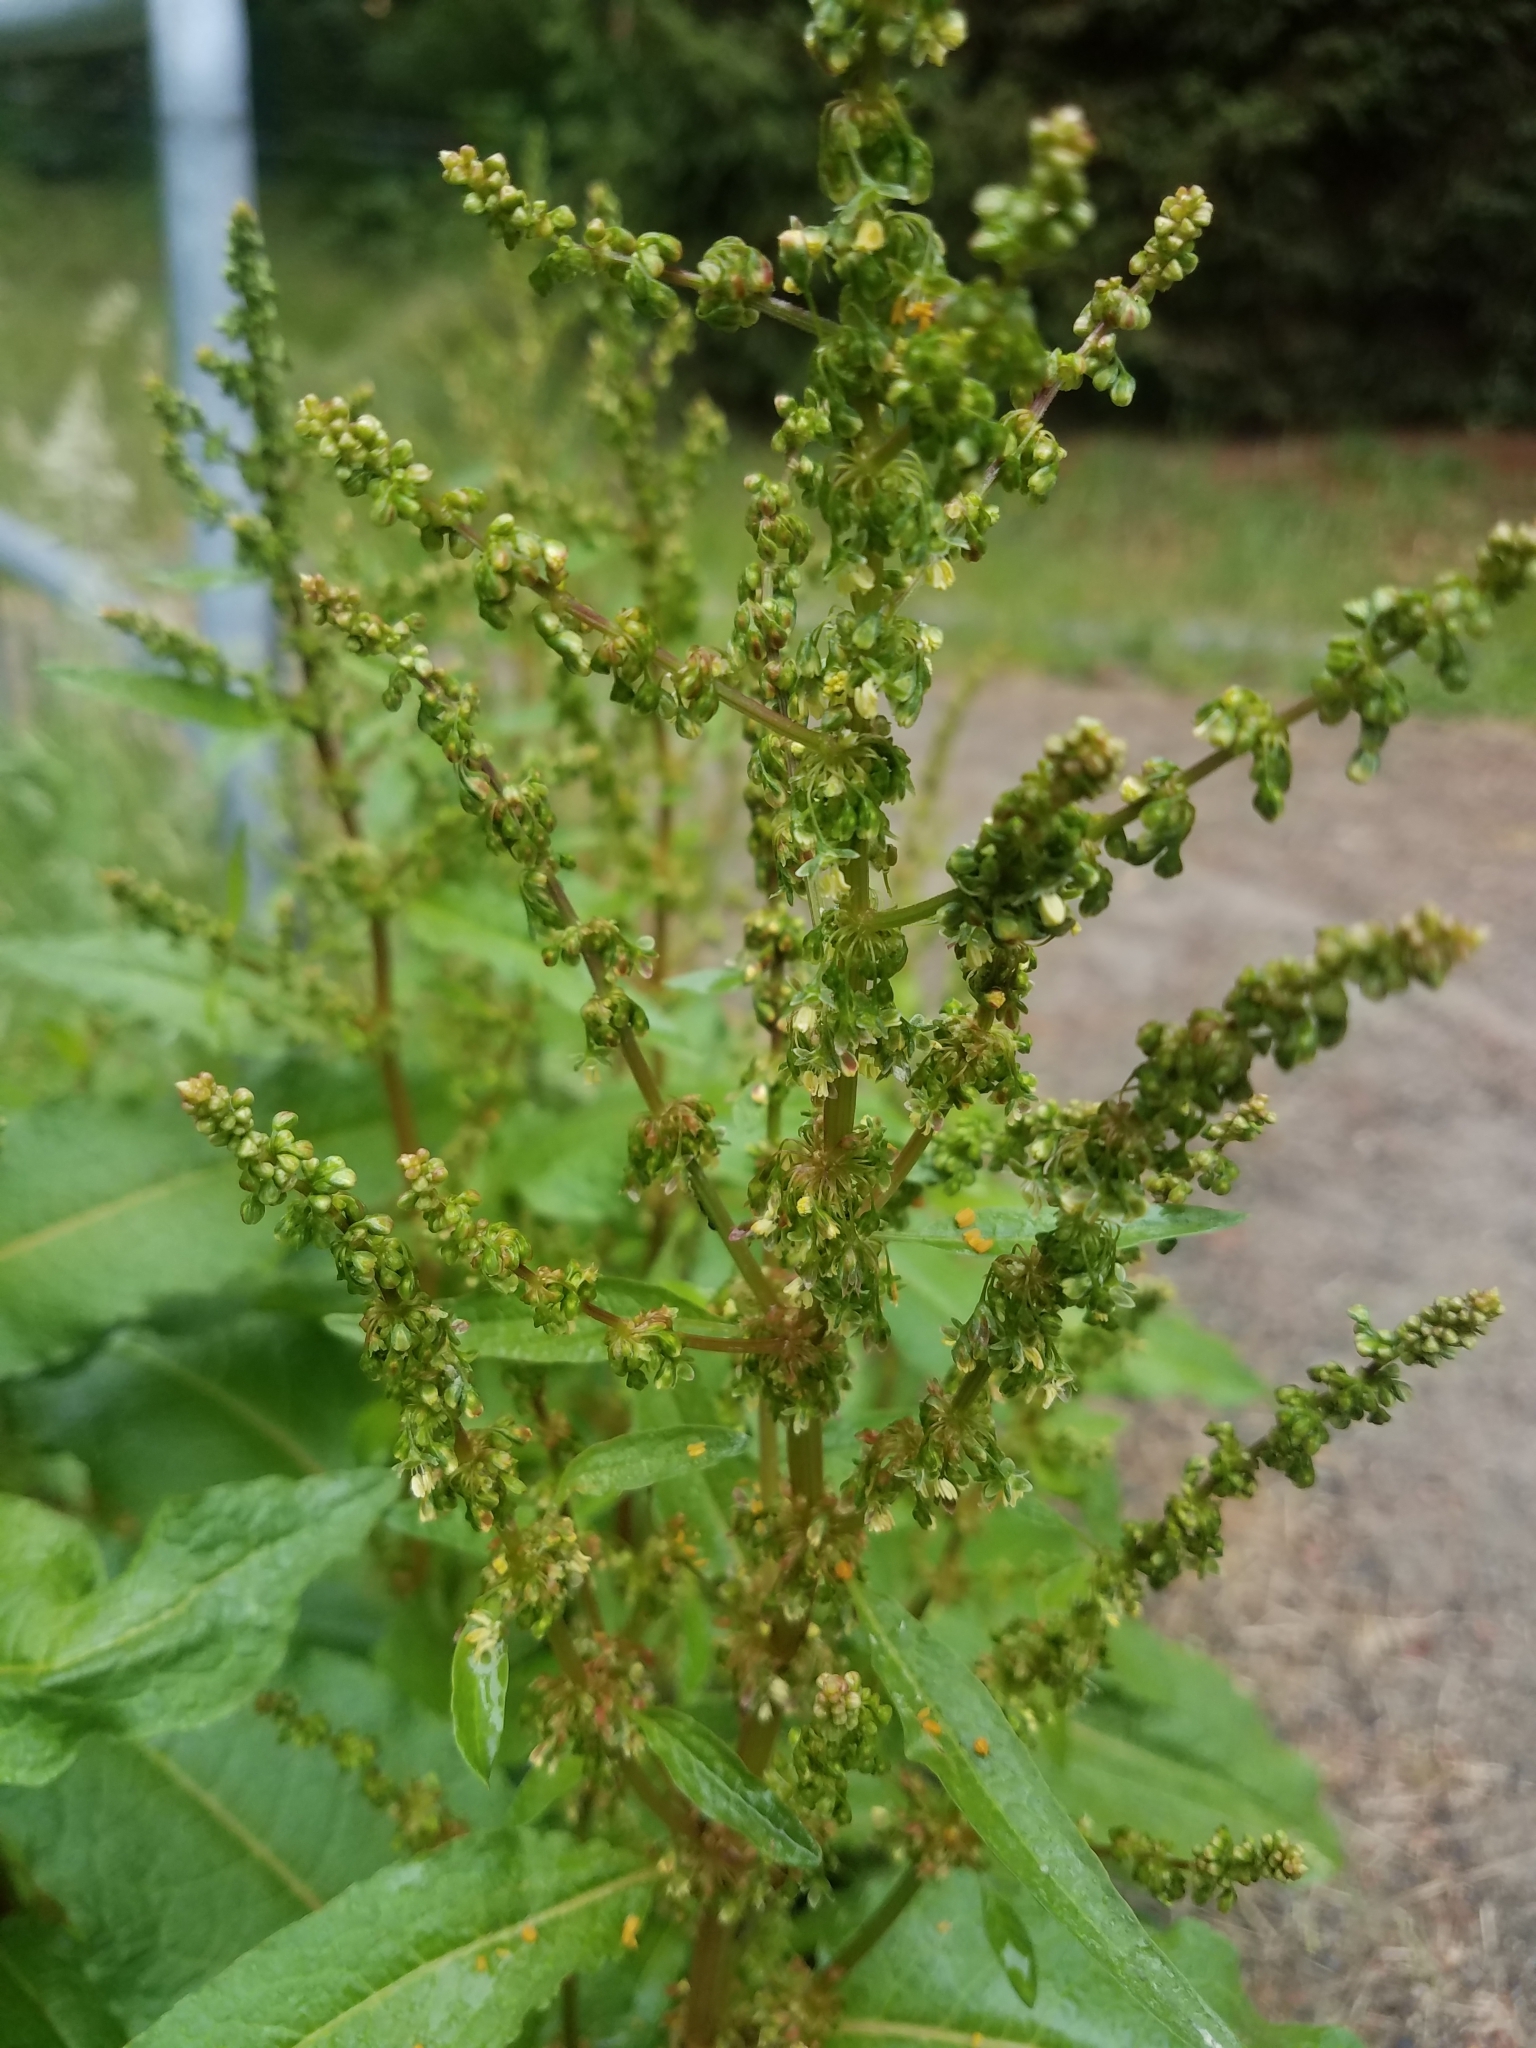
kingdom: Plantae
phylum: Tracheophyta
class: Magnoliopsida
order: Caryophyllales
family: Polygonaceae
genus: Rumex
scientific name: Rumex obtusifolius
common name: Bitter dock
